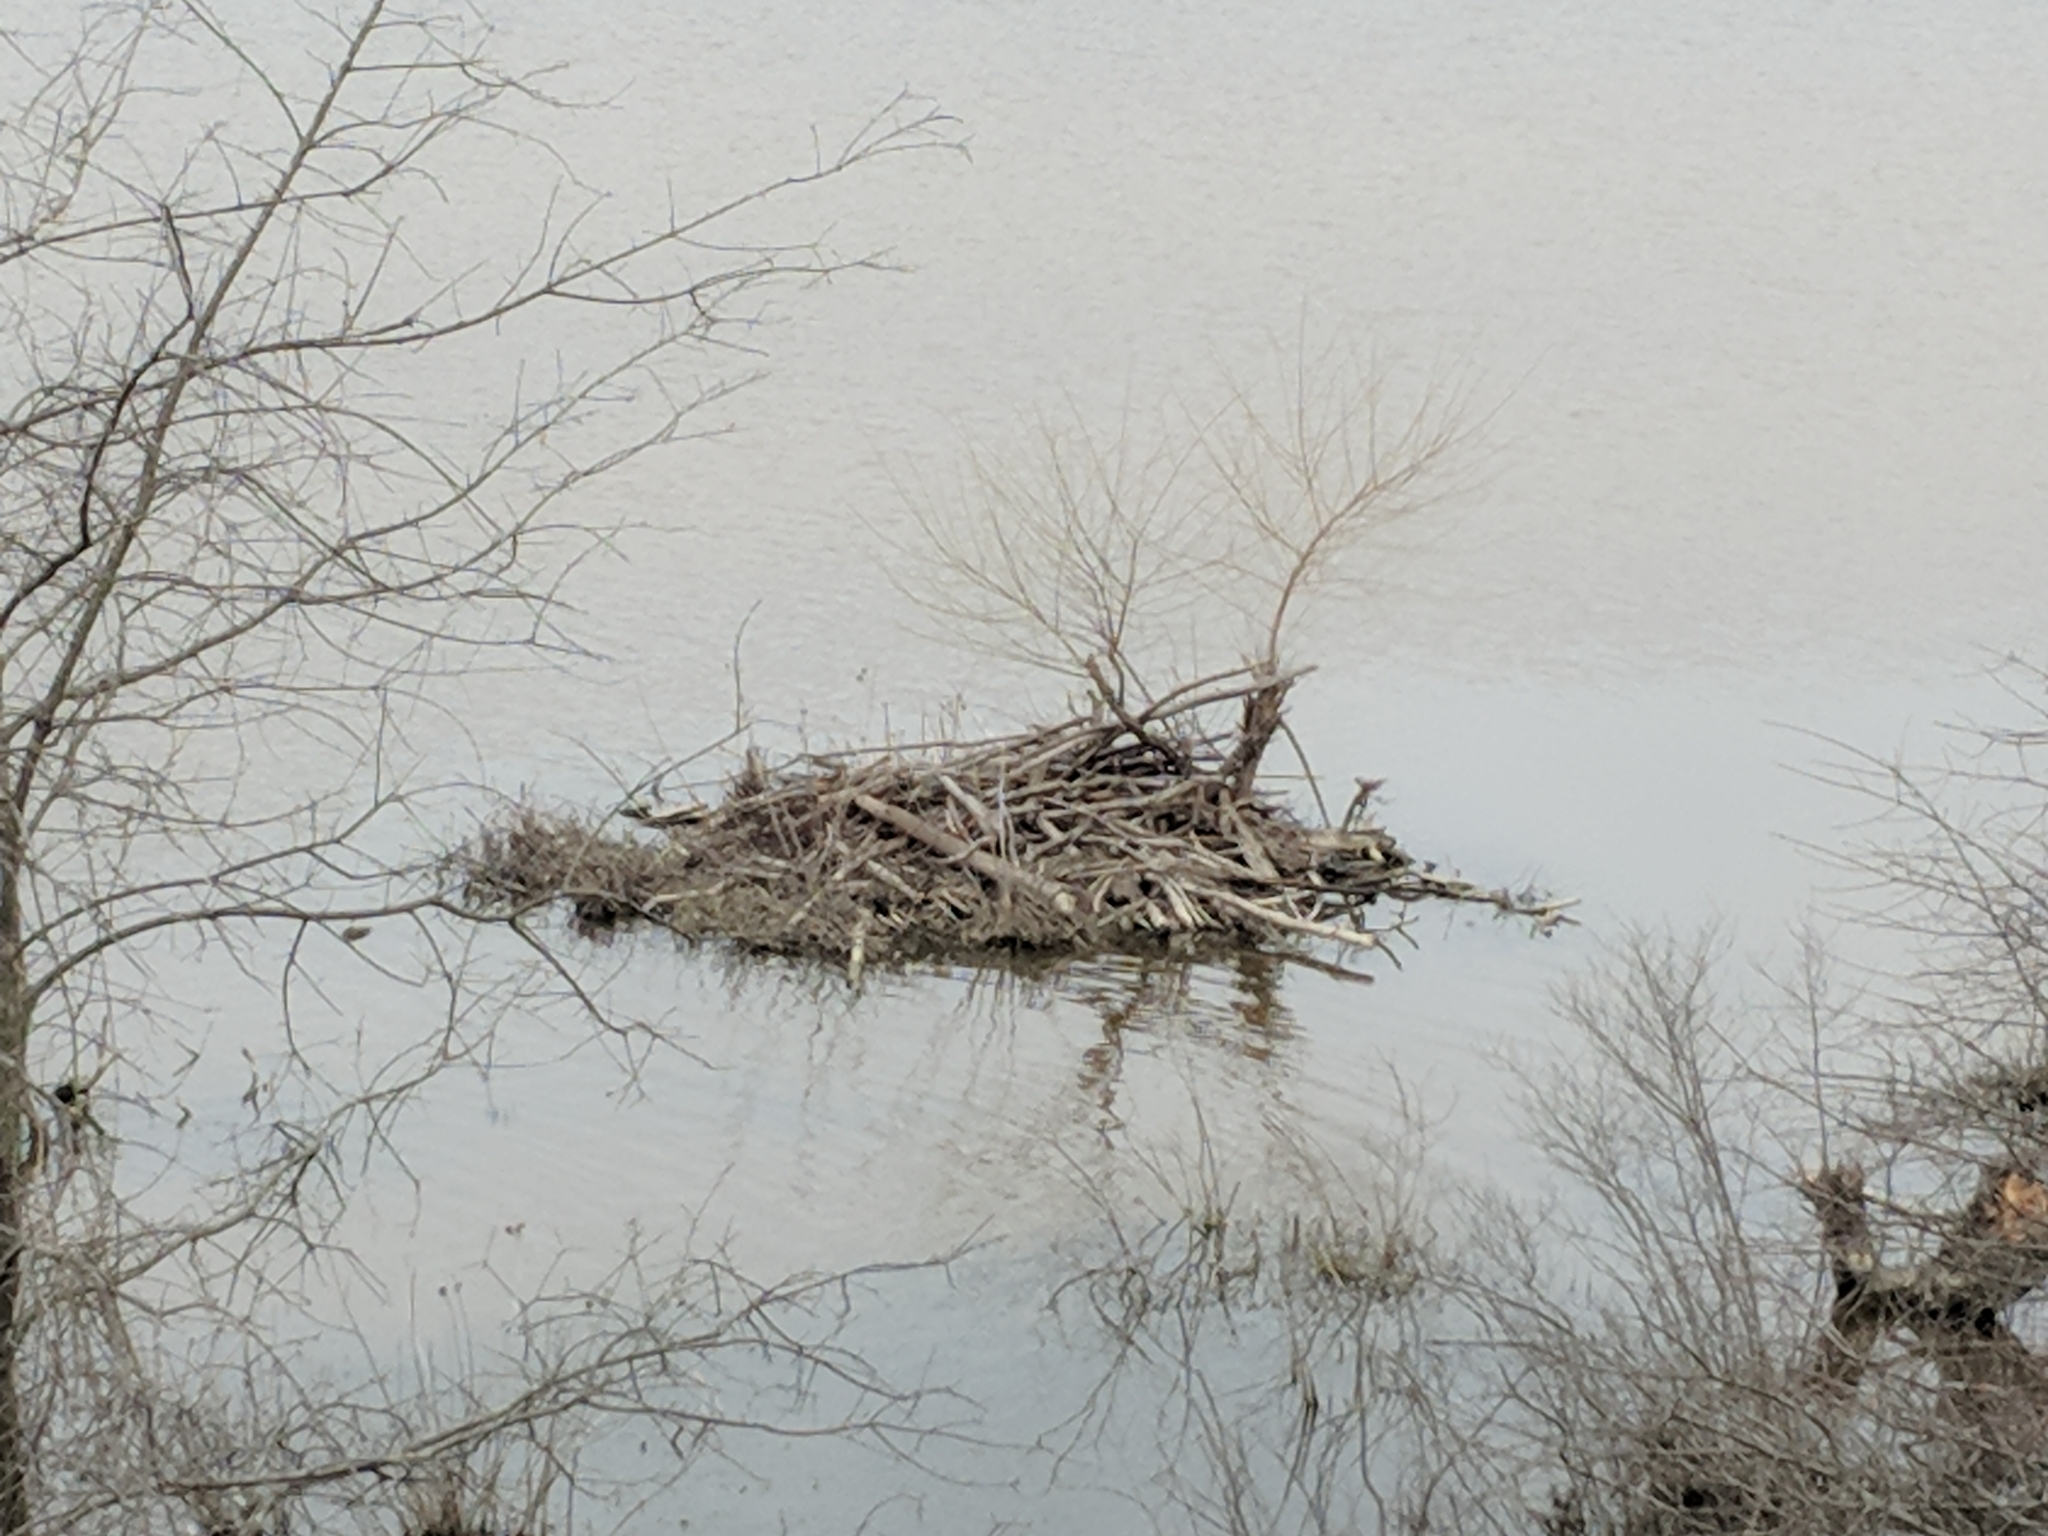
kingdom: Animalia
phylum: Chordata
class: Mammalia
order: Rodentia
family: Castoridae
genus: Castor
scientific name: Castor canadensis
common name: American beaver
